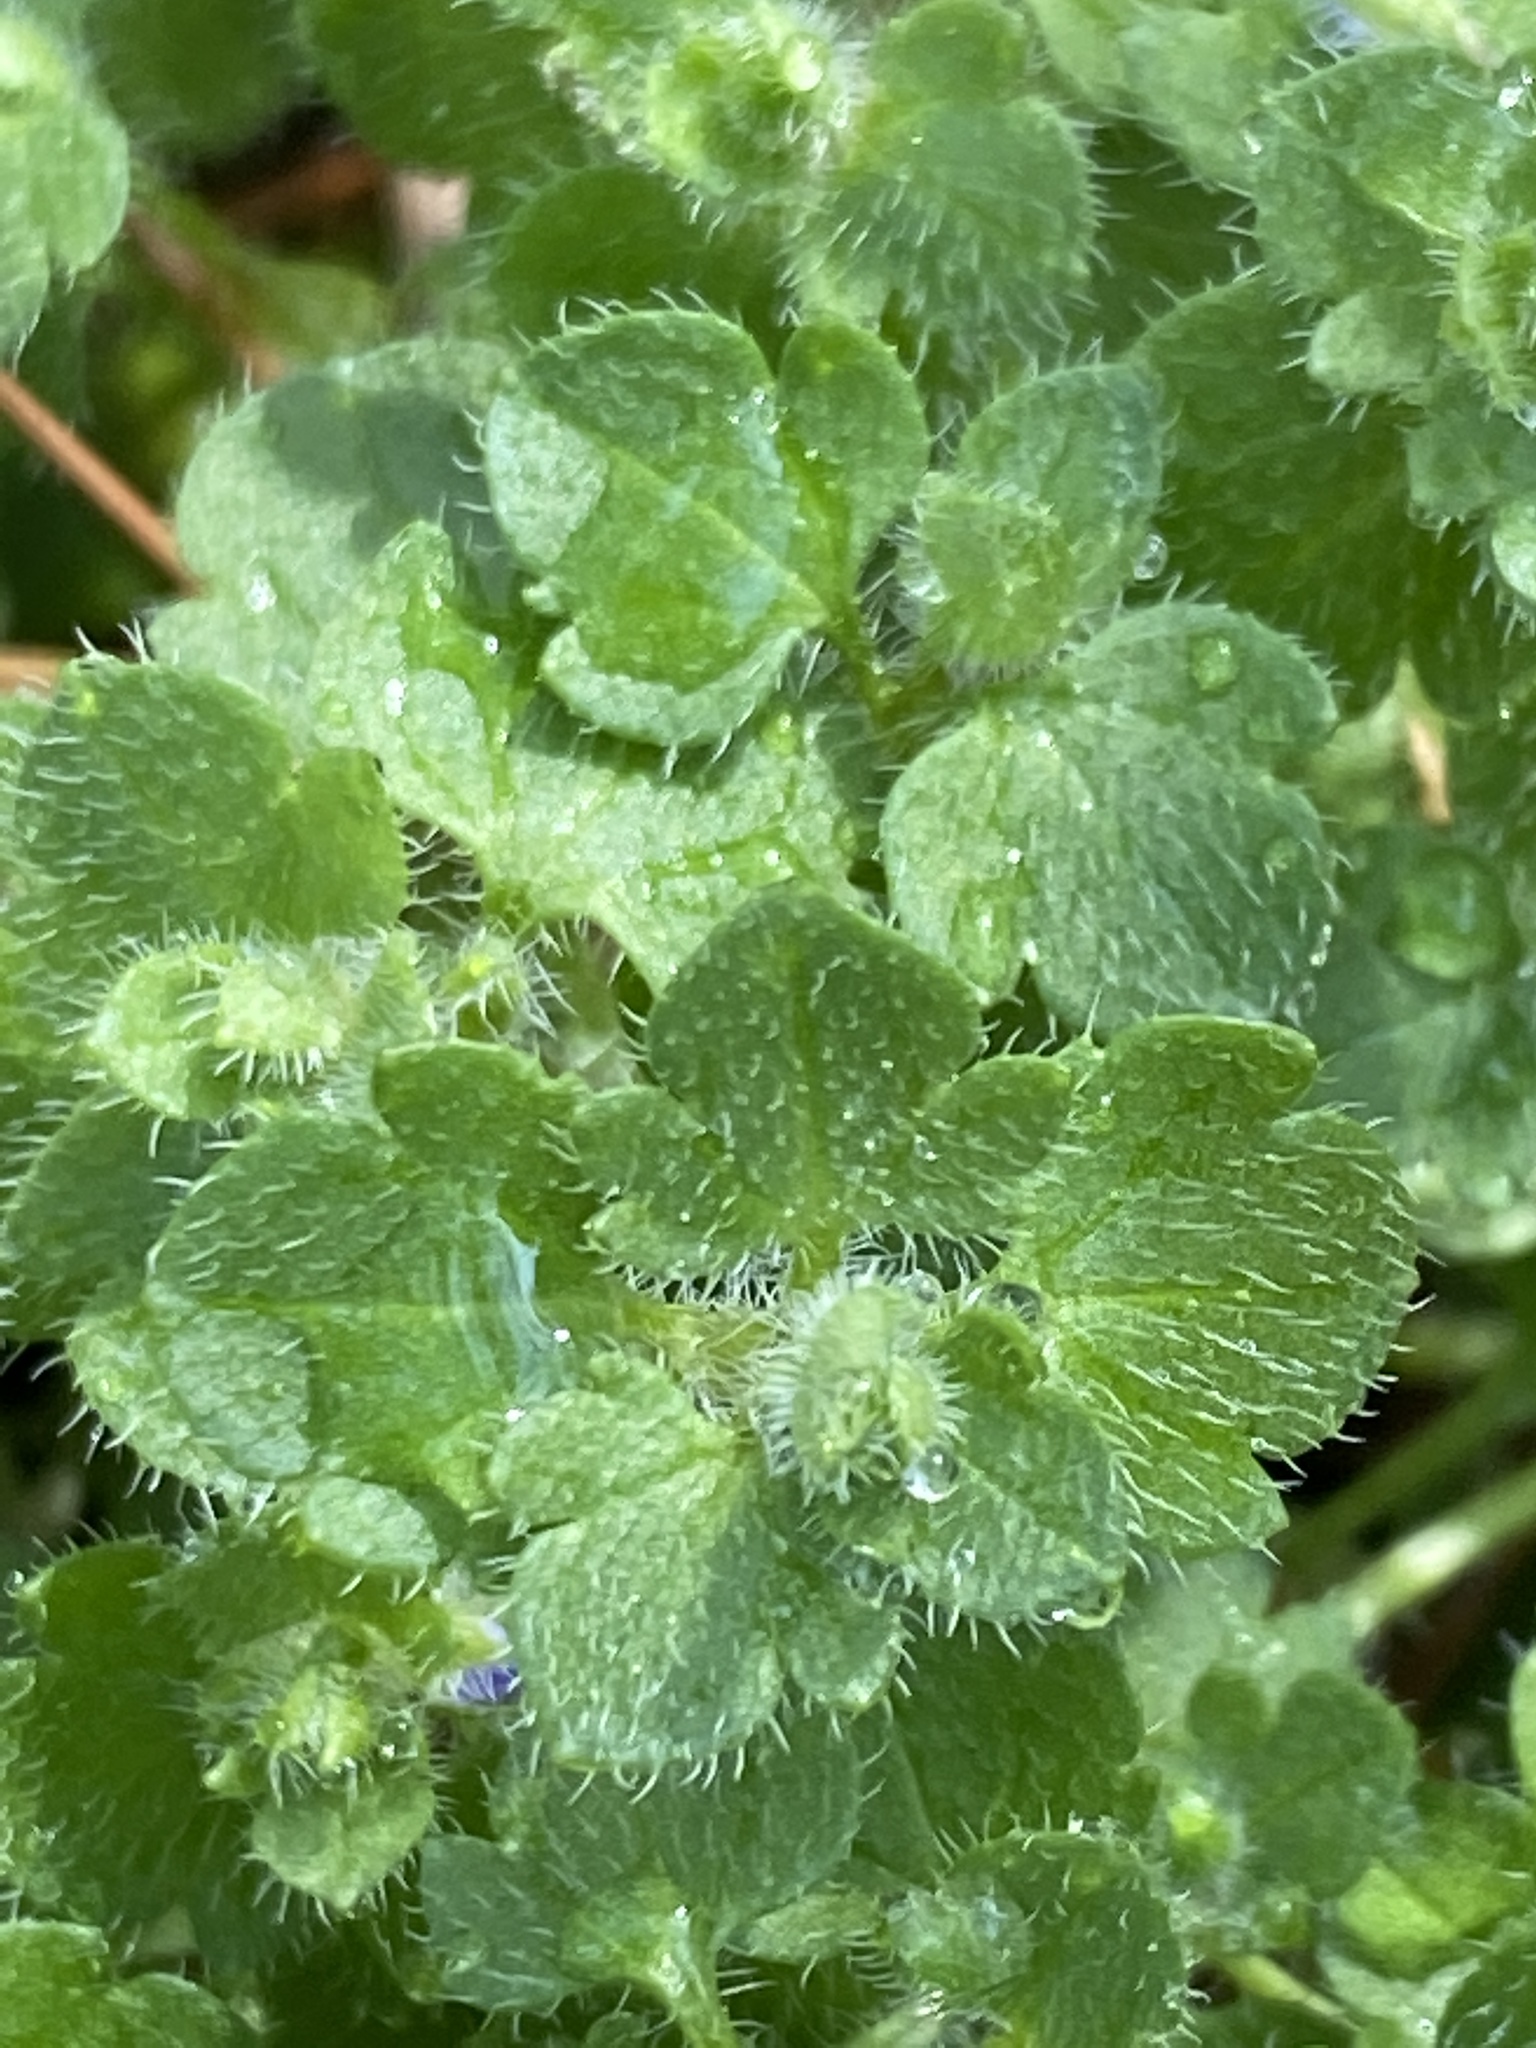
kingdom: Plantae
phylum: Tracheophyta
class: Magnoliopsida
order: Lamiales
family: Plantaginaceae
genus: Veronica
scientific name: Veronica hederifolia
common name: Ivy-leaved speedwell
